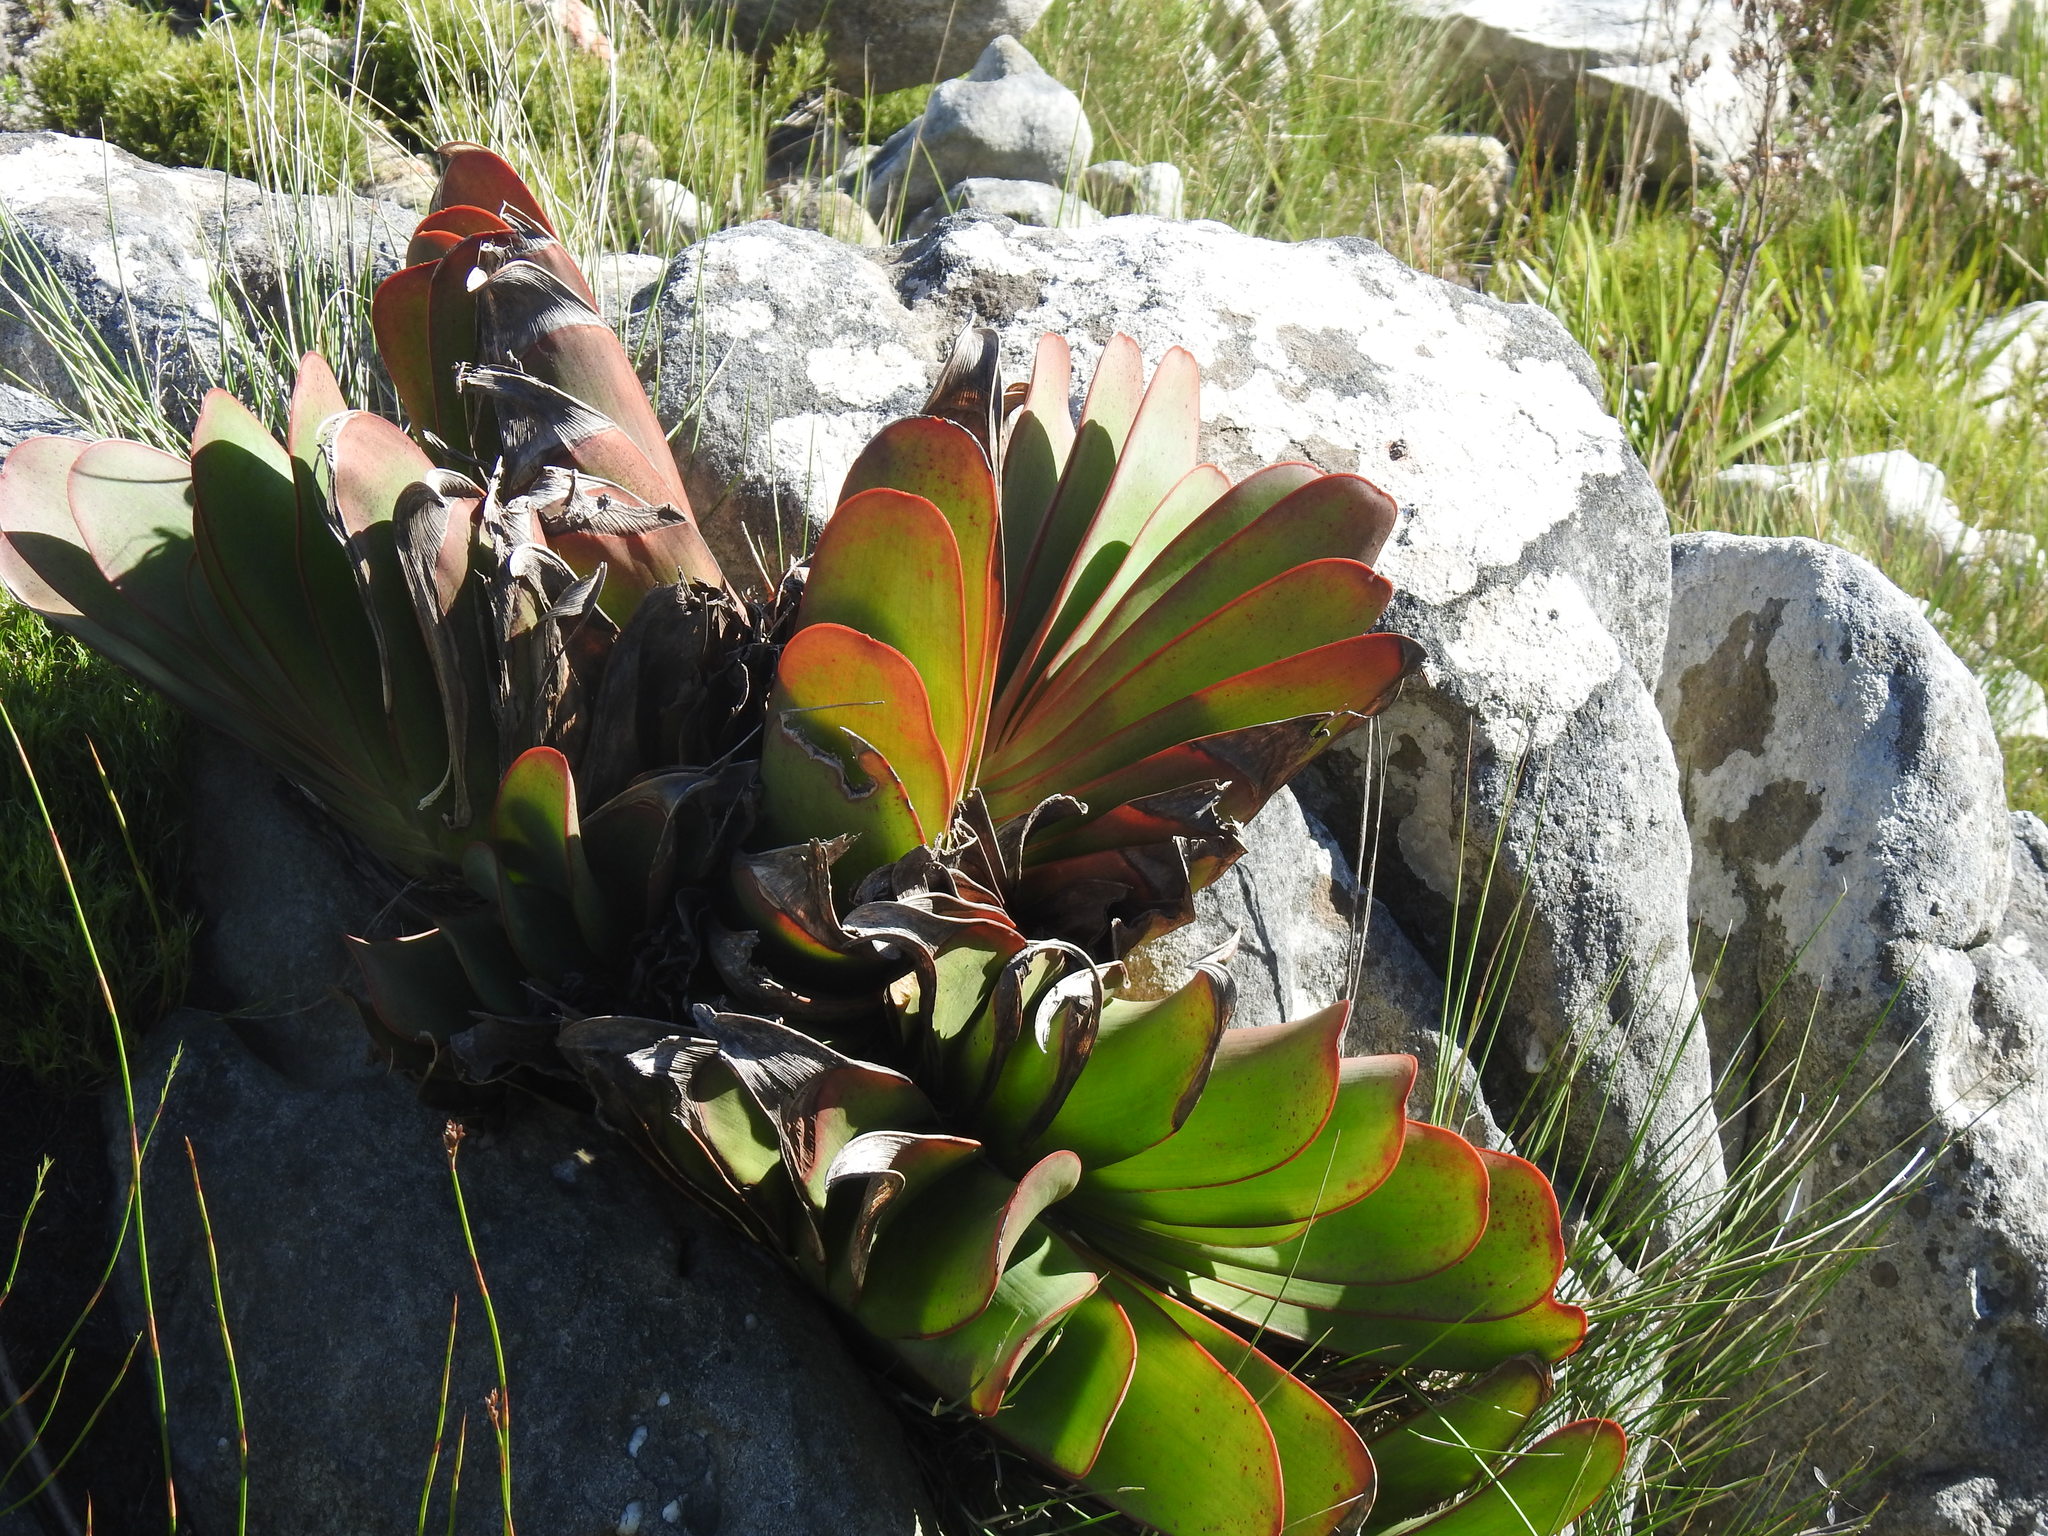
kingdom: Plantae
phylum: Tracheophyta
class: Liliopsida
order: Asparagales
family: Asphodelaceae
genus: Kumara
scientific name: Kumara haemanthifolia
